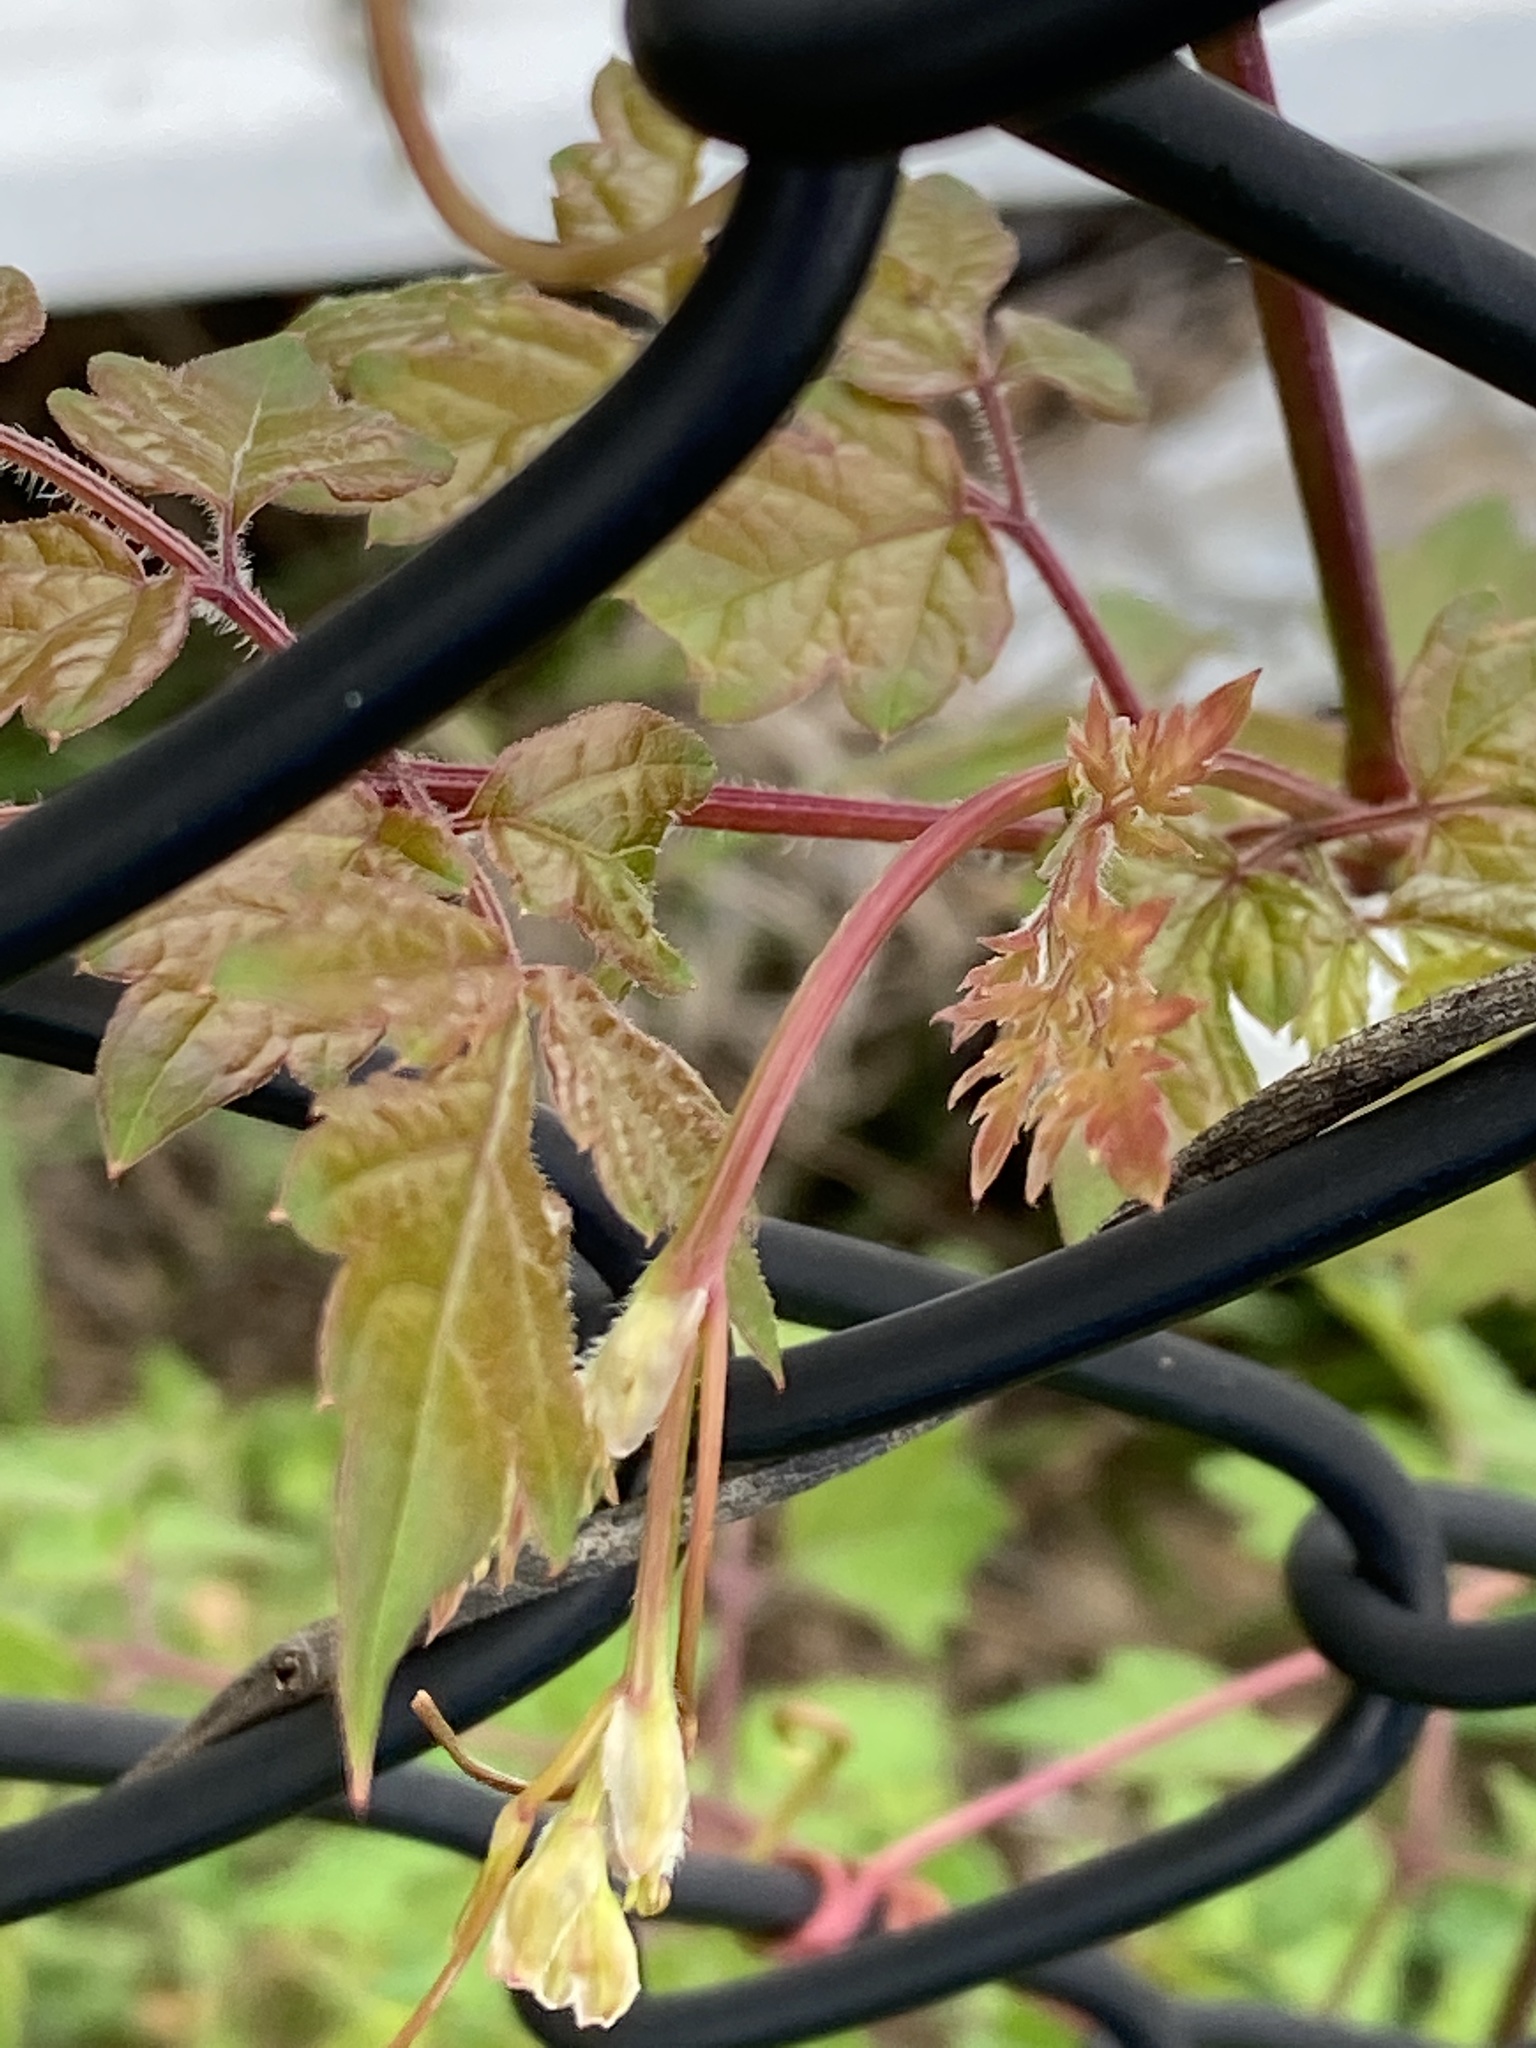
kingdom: Plantae
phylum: Tracheophyta
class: Magnoliopsida
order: Vitales
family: Vitaceae
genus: Nekemias
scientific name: Nekemias arborea
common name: Peppervine
